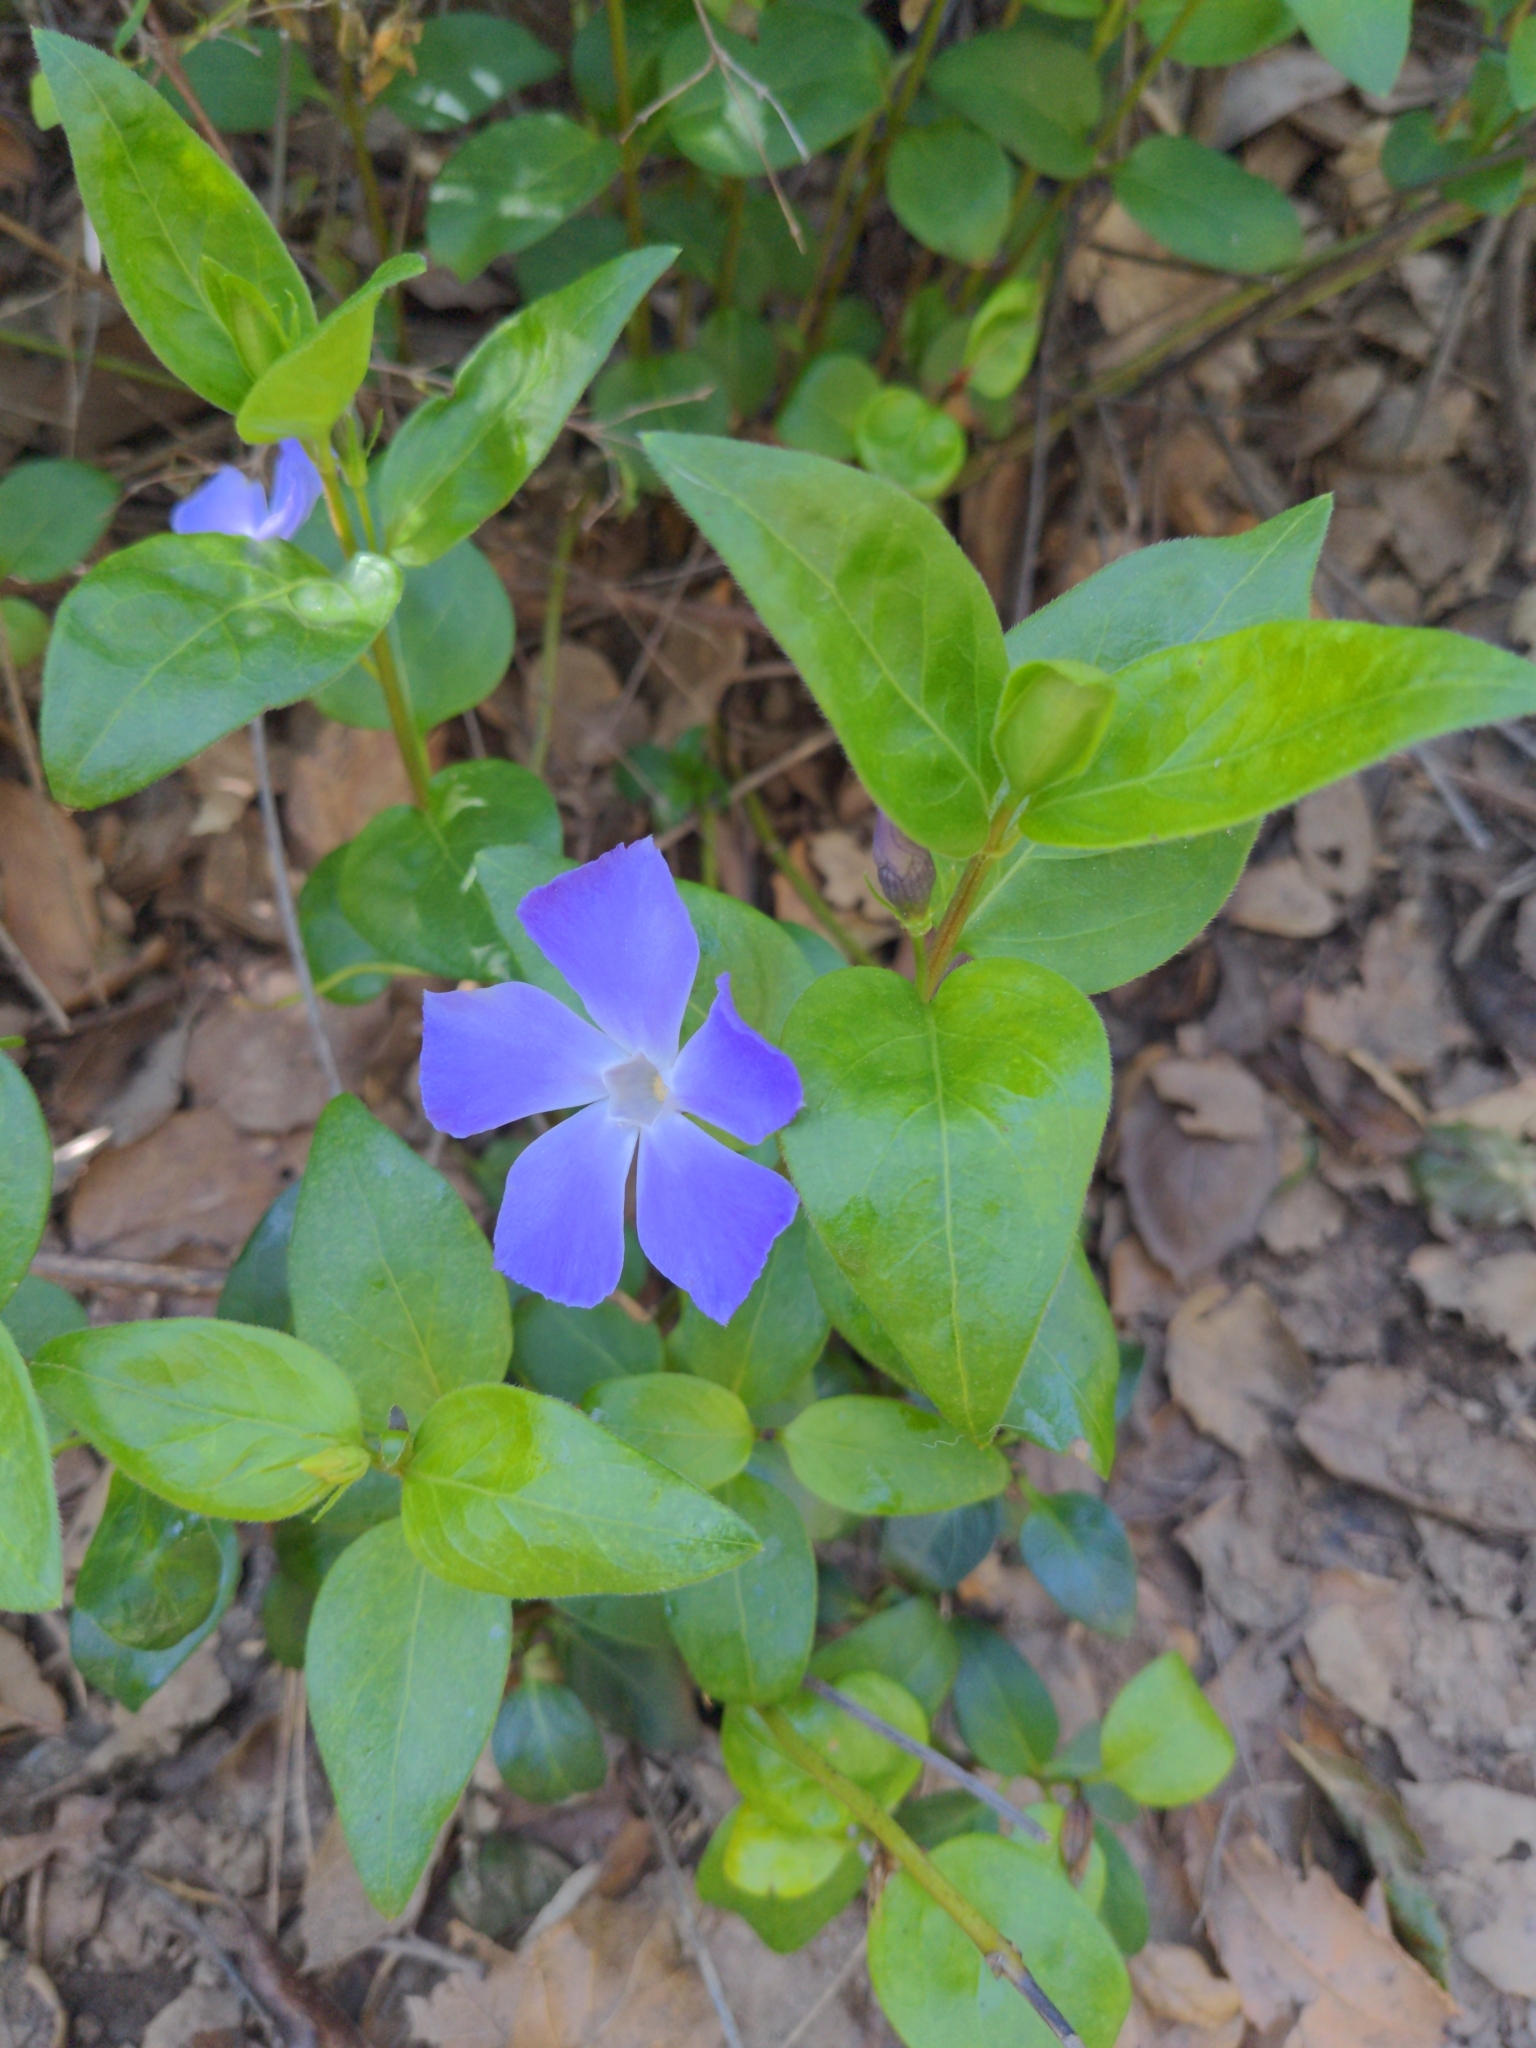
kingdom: Plantae
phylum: Tracheophyta
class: Magnoliopsida
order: Gentianales
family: Apocynaceae
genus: Vinca
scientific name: Vinca major
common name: Greater periwinkle
